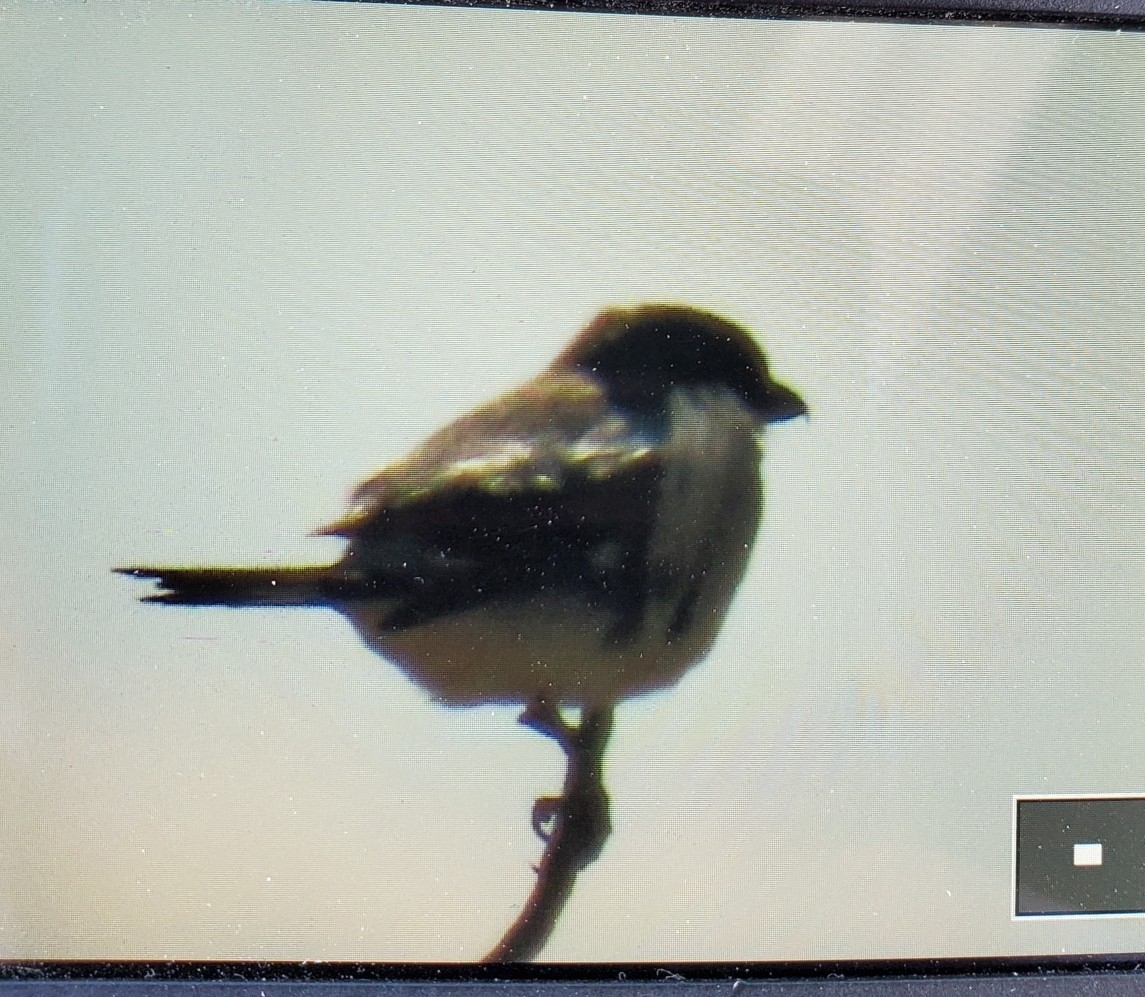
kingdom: Animalia
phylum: Chordata
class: Aves
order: Passeriformes
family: Laniidae
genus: Lanius
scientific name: Lanius ludovicianus
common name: Loggerhead shrike
